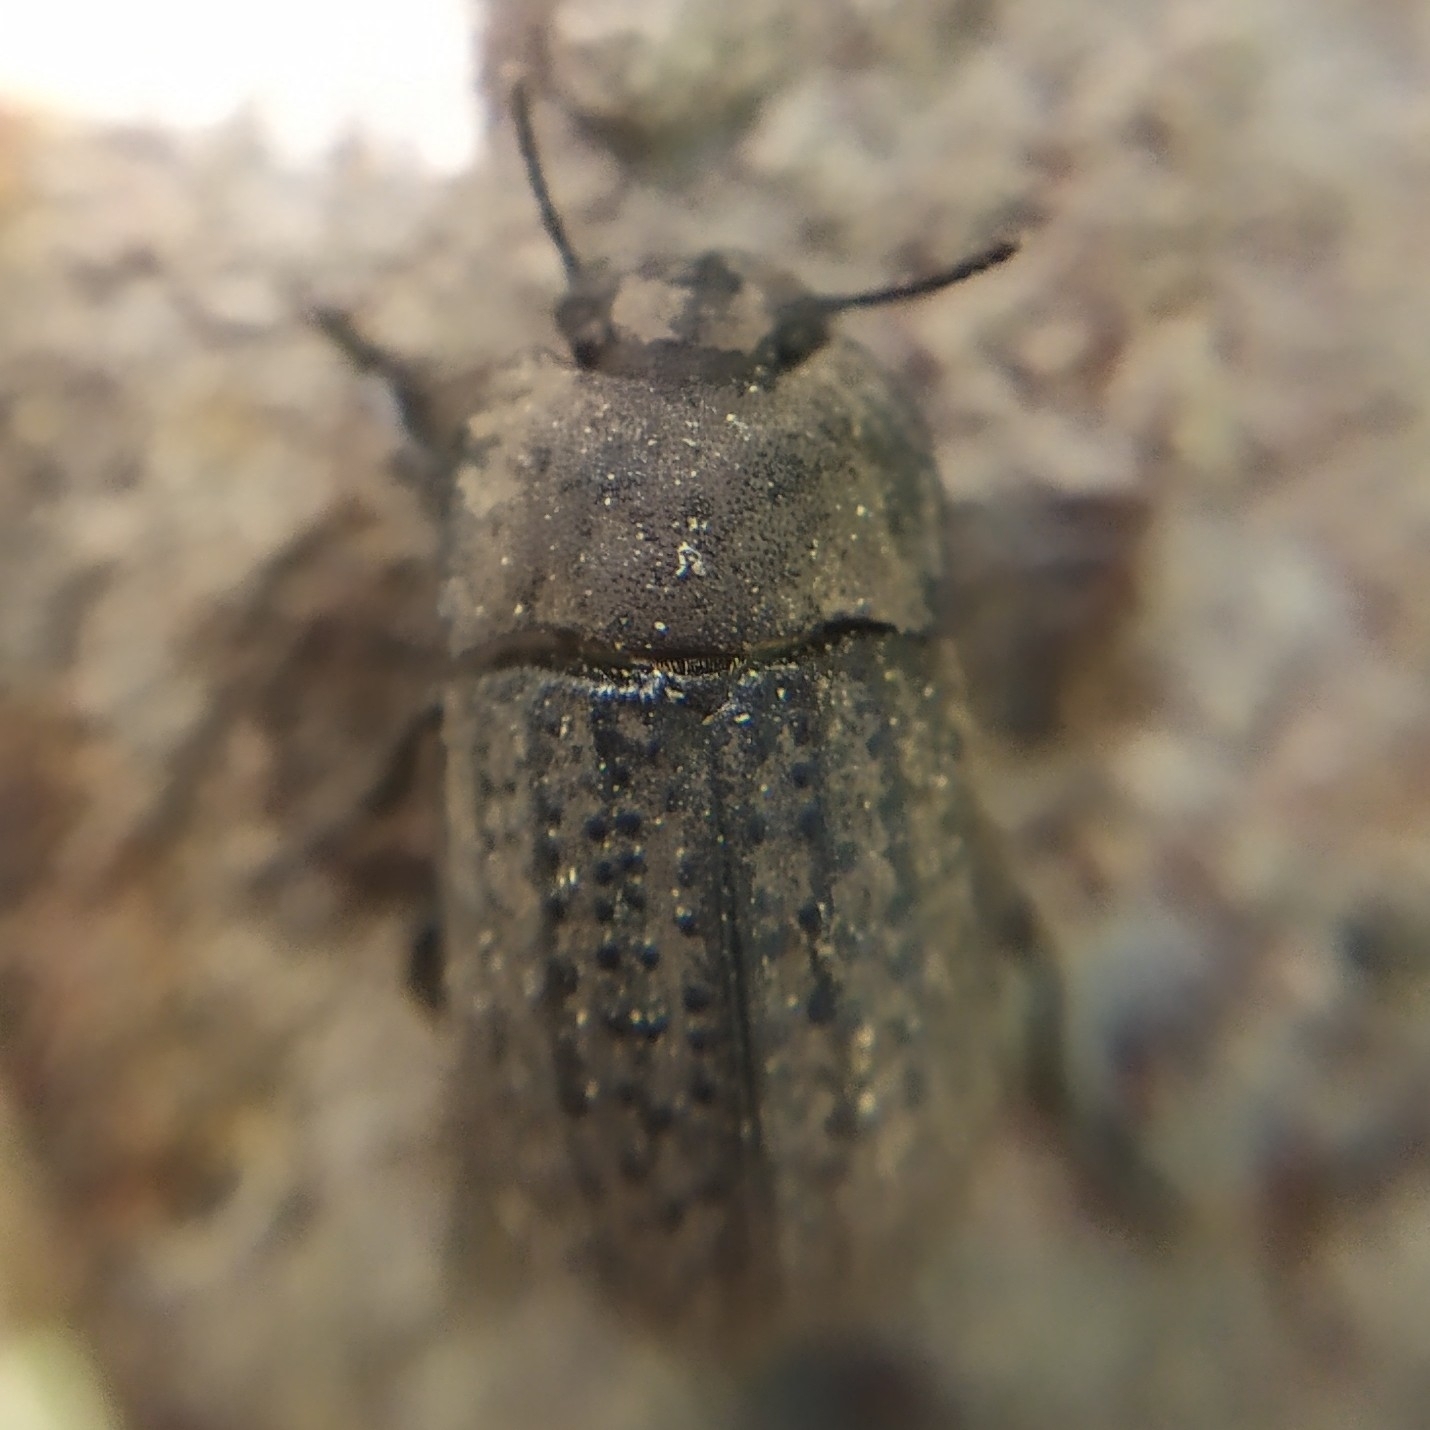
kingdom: Animalia
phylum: Arthropoda
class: Insecta
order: Coleoptera
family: Tenebrionidae
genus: Opatrum
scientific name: Opatrum sabulosum
